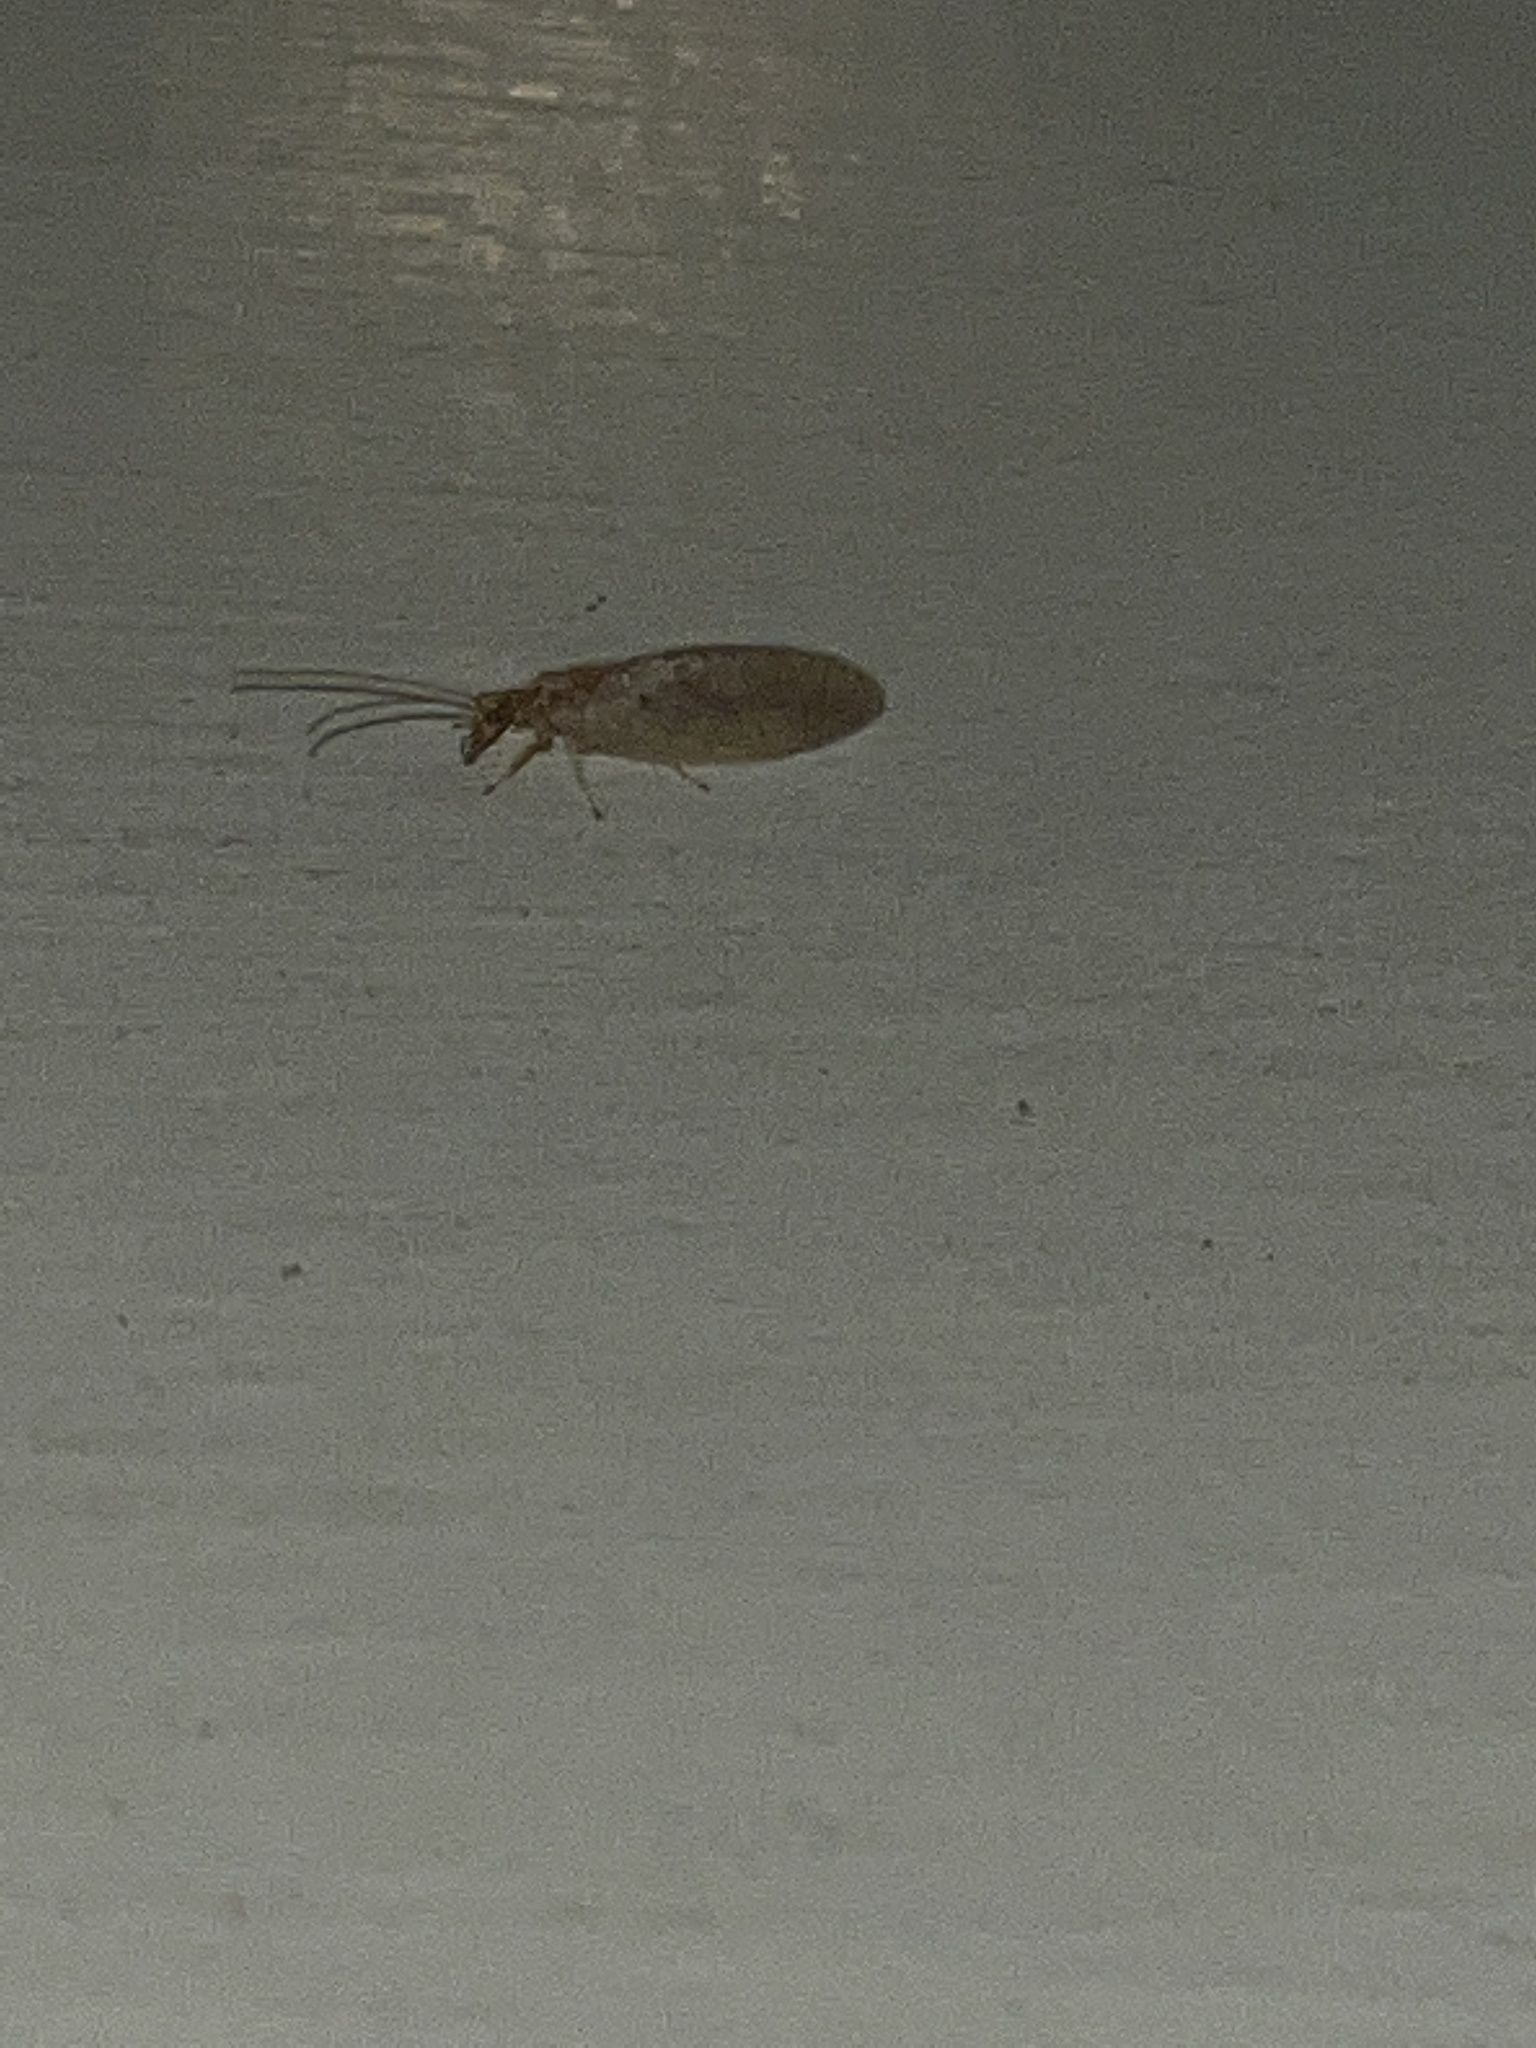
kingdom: Animalia
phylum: Arthropoda
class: Insecta
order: Neuroptera
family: Hemerobiidae
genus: Micromus
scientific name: Micromus subanticus
